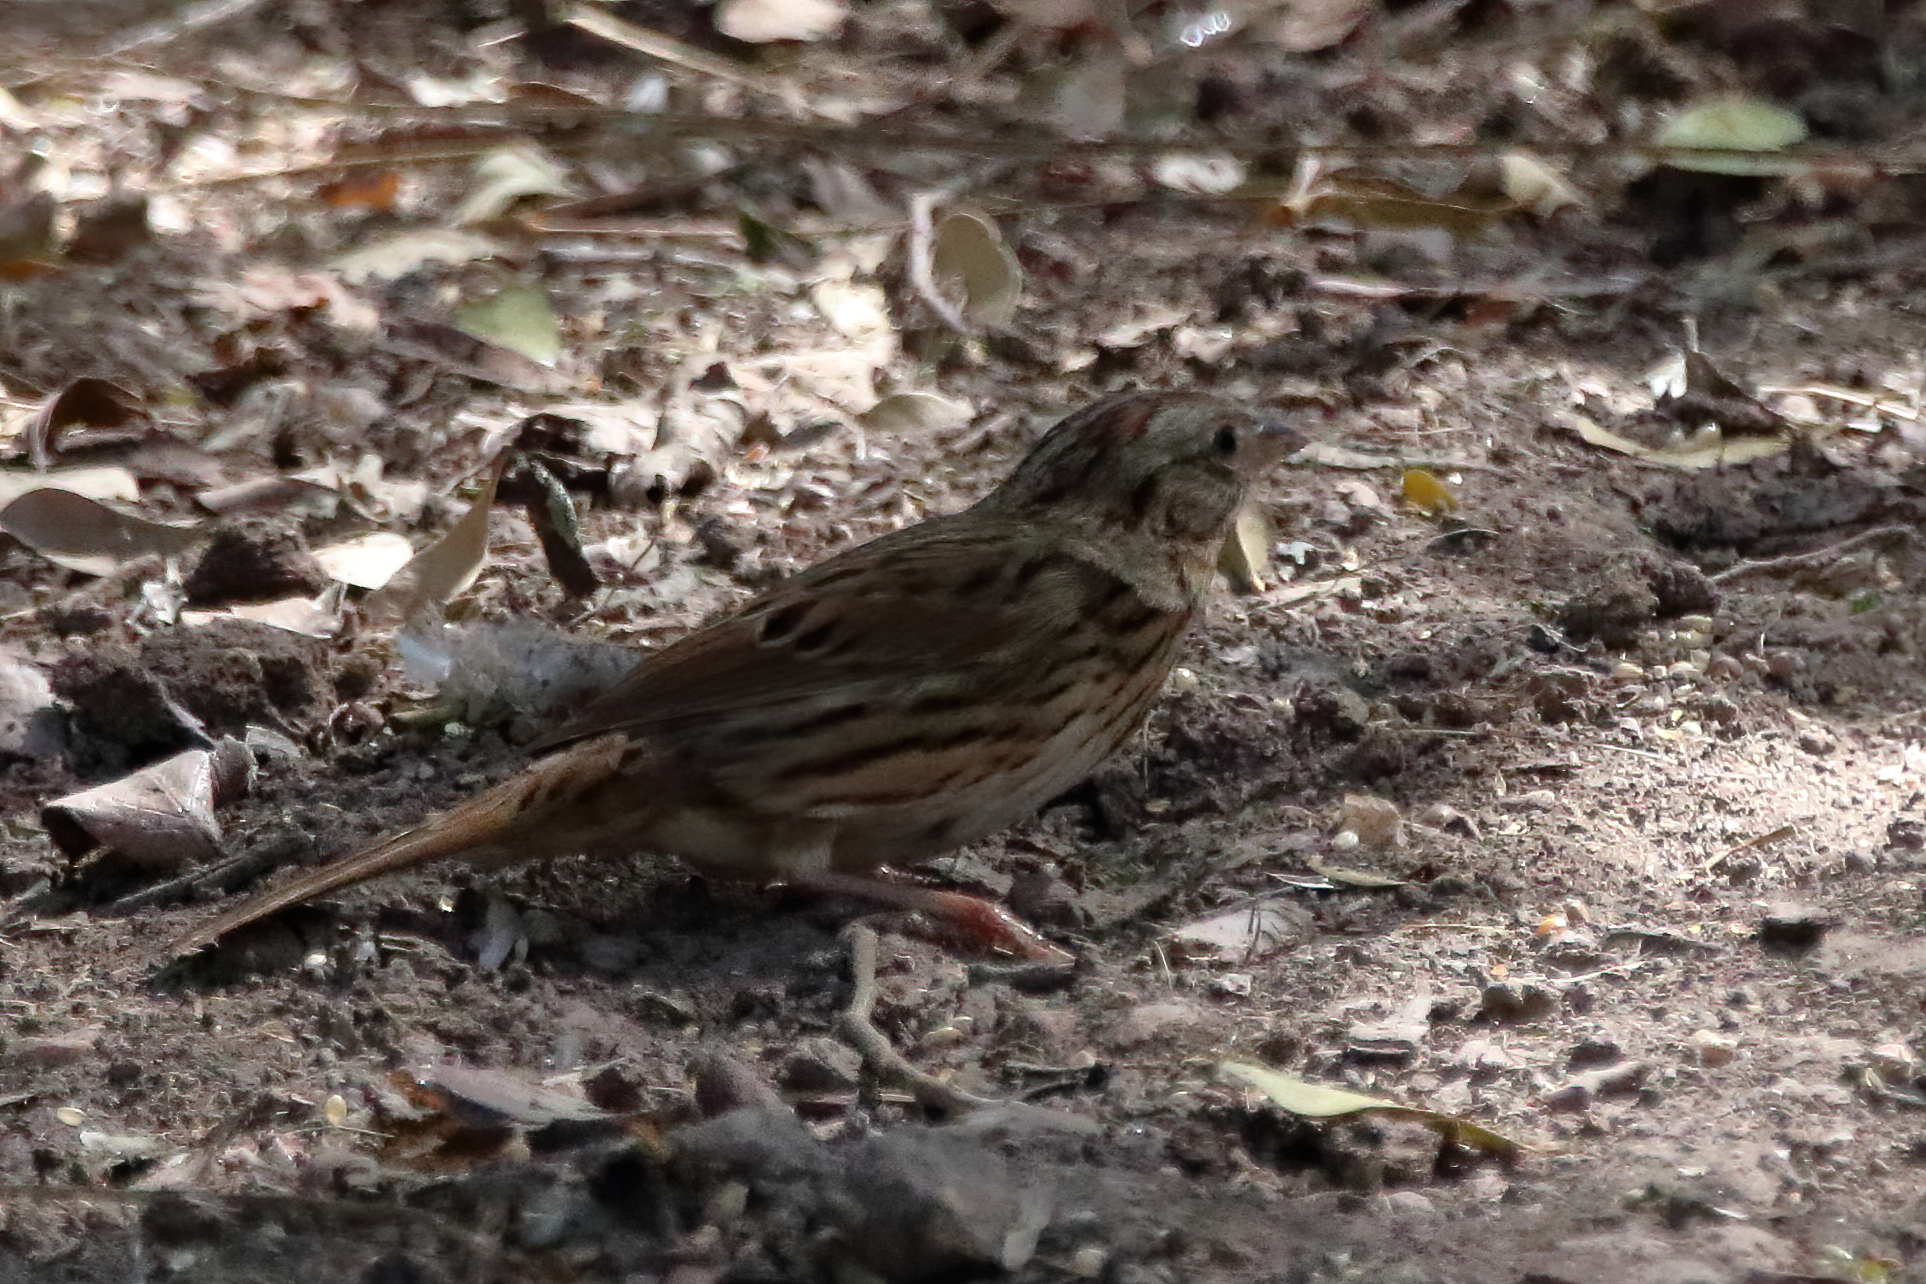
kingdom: Animalia
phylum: Chordata
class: Aves
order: Passeriformes
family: Passerellidae
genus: Melospiza
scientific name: Melospiza lincolnii
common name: Lincoln's sparrow
